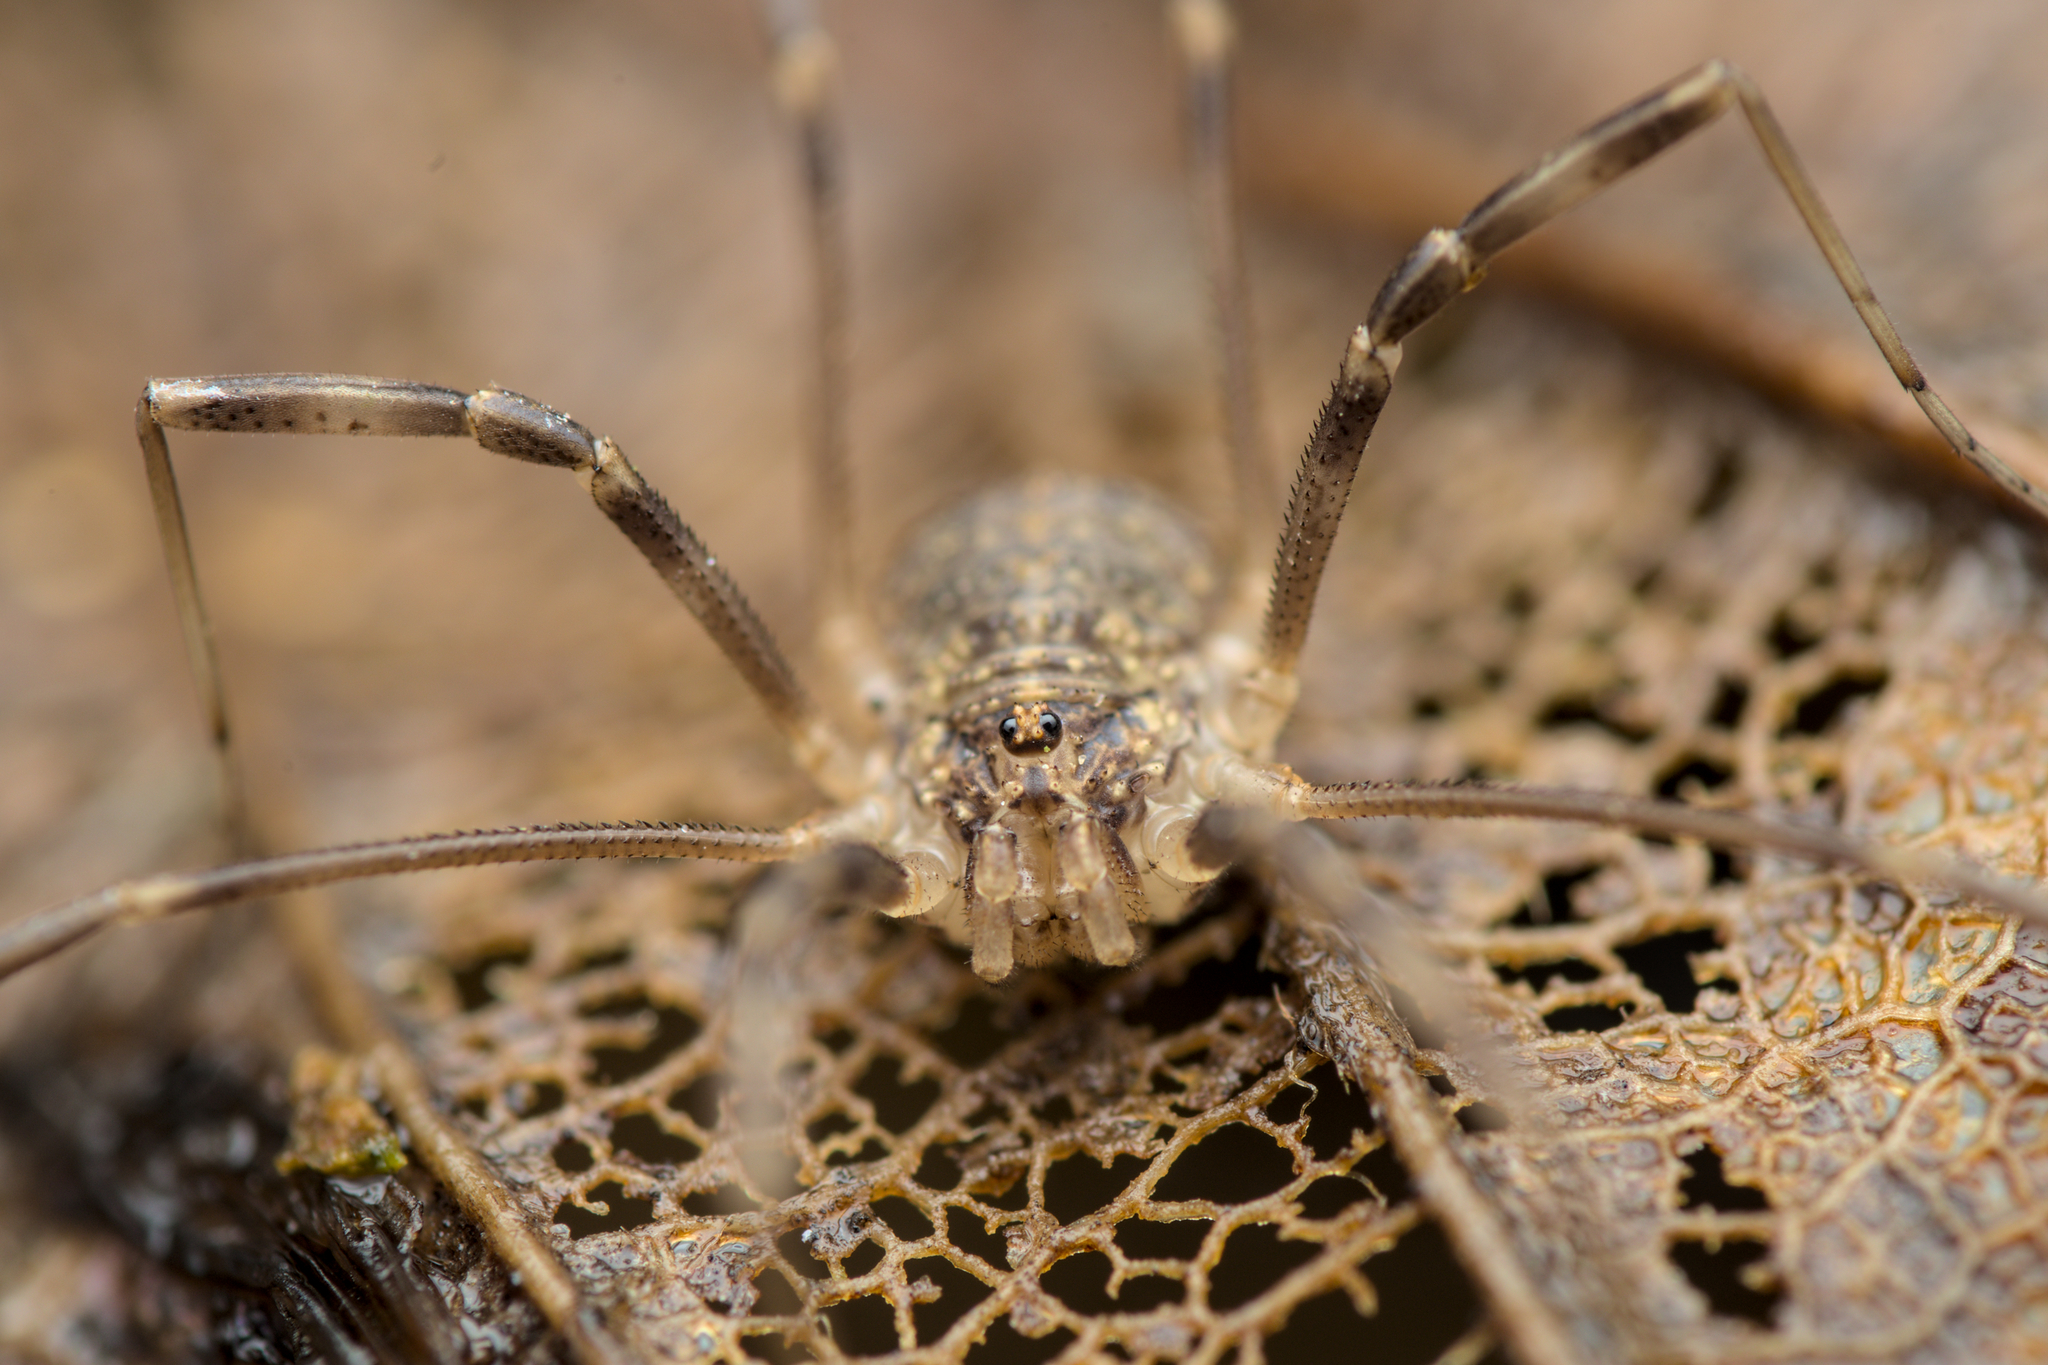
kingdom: Animalia
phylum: Arthropoda
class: Arachnida
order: Opiliones
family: Phalangiidae
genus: Opilio
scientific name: Opilio saxatilis
